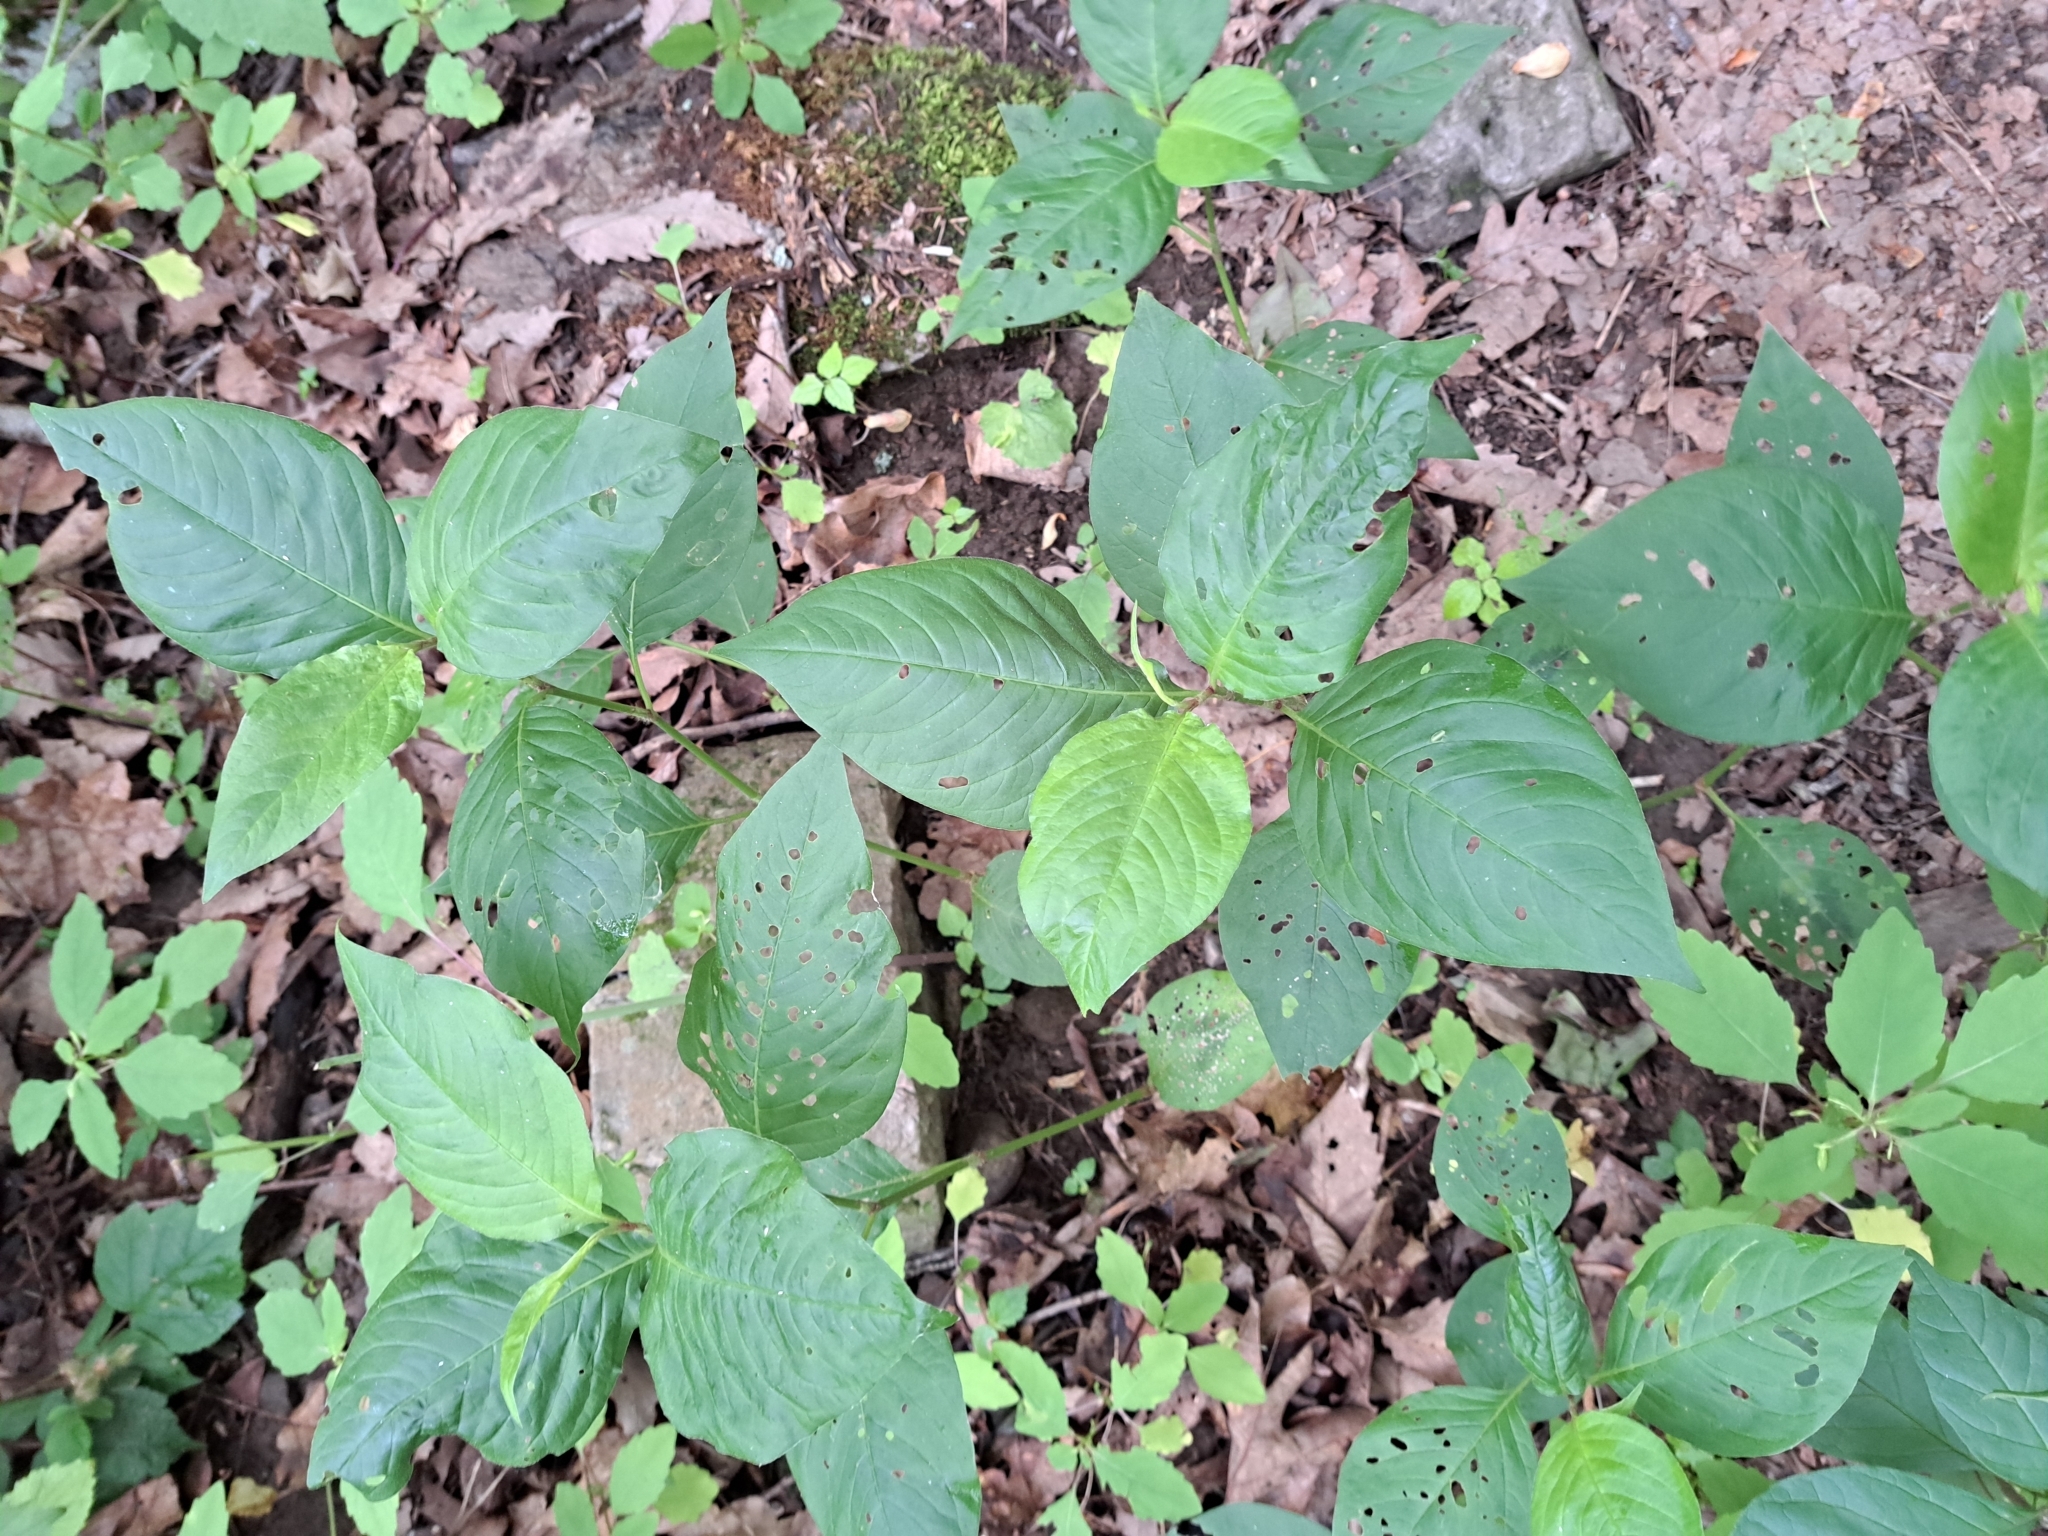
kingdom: Plantae
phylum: Tracheophyta
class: Magnoliopsida
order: Caryophyllales
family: Polygonaceae
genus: Persicaria
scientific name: Persicaria virginiana
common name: Jumpseed
